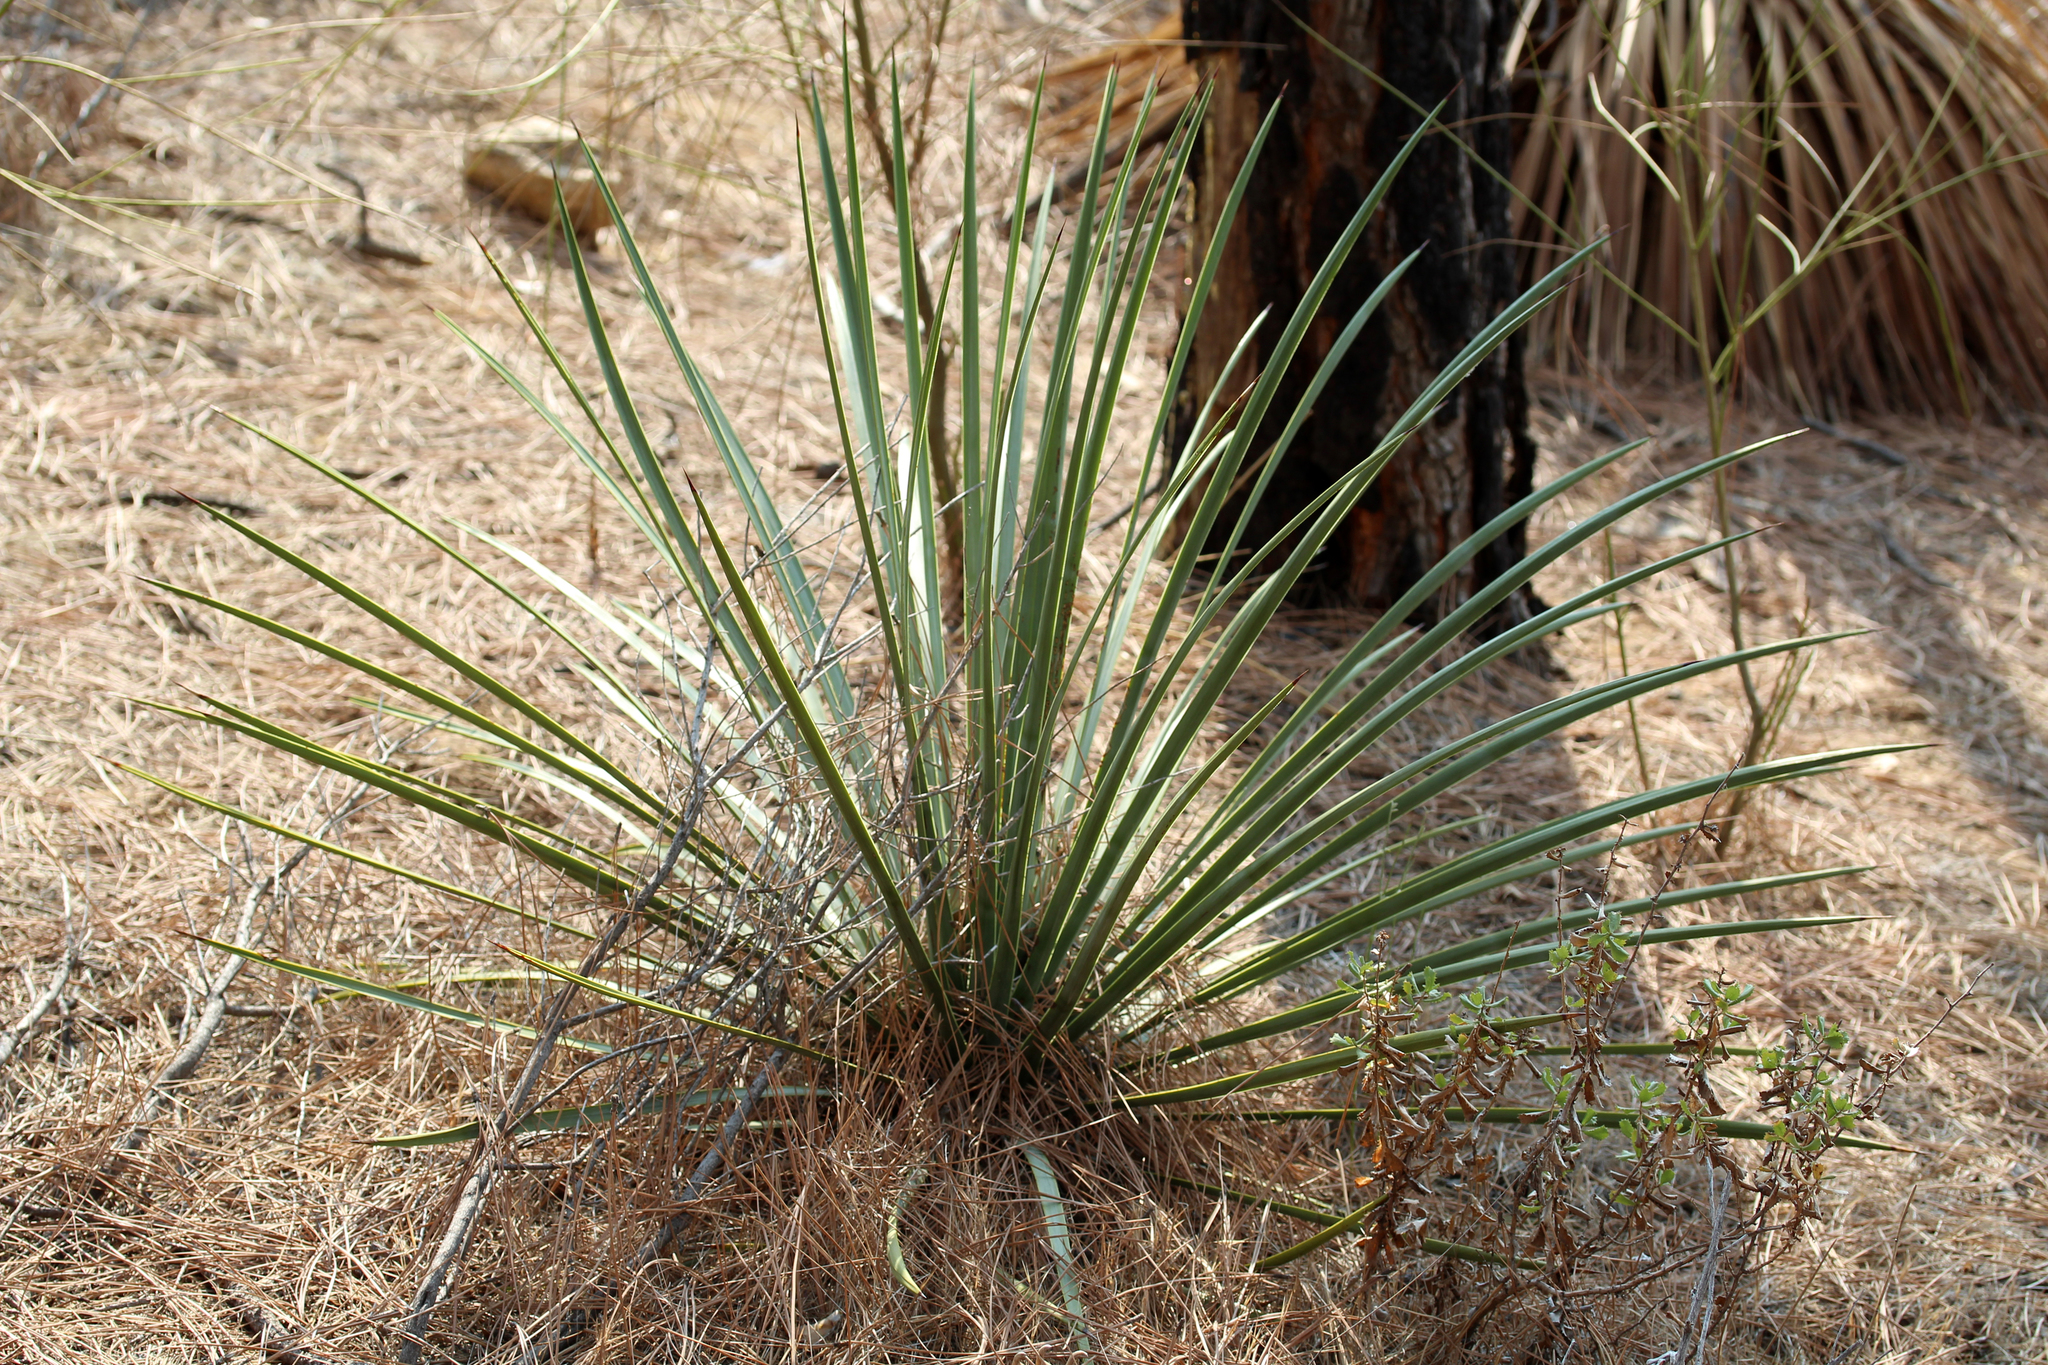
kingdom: Plantae
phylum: Tracheophyta
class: Liliopsida
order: Asparagales
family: Asparagaceae
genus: Hesperoyucca
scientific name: Hesperoyucca whipplei
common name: Our lord's-candle
